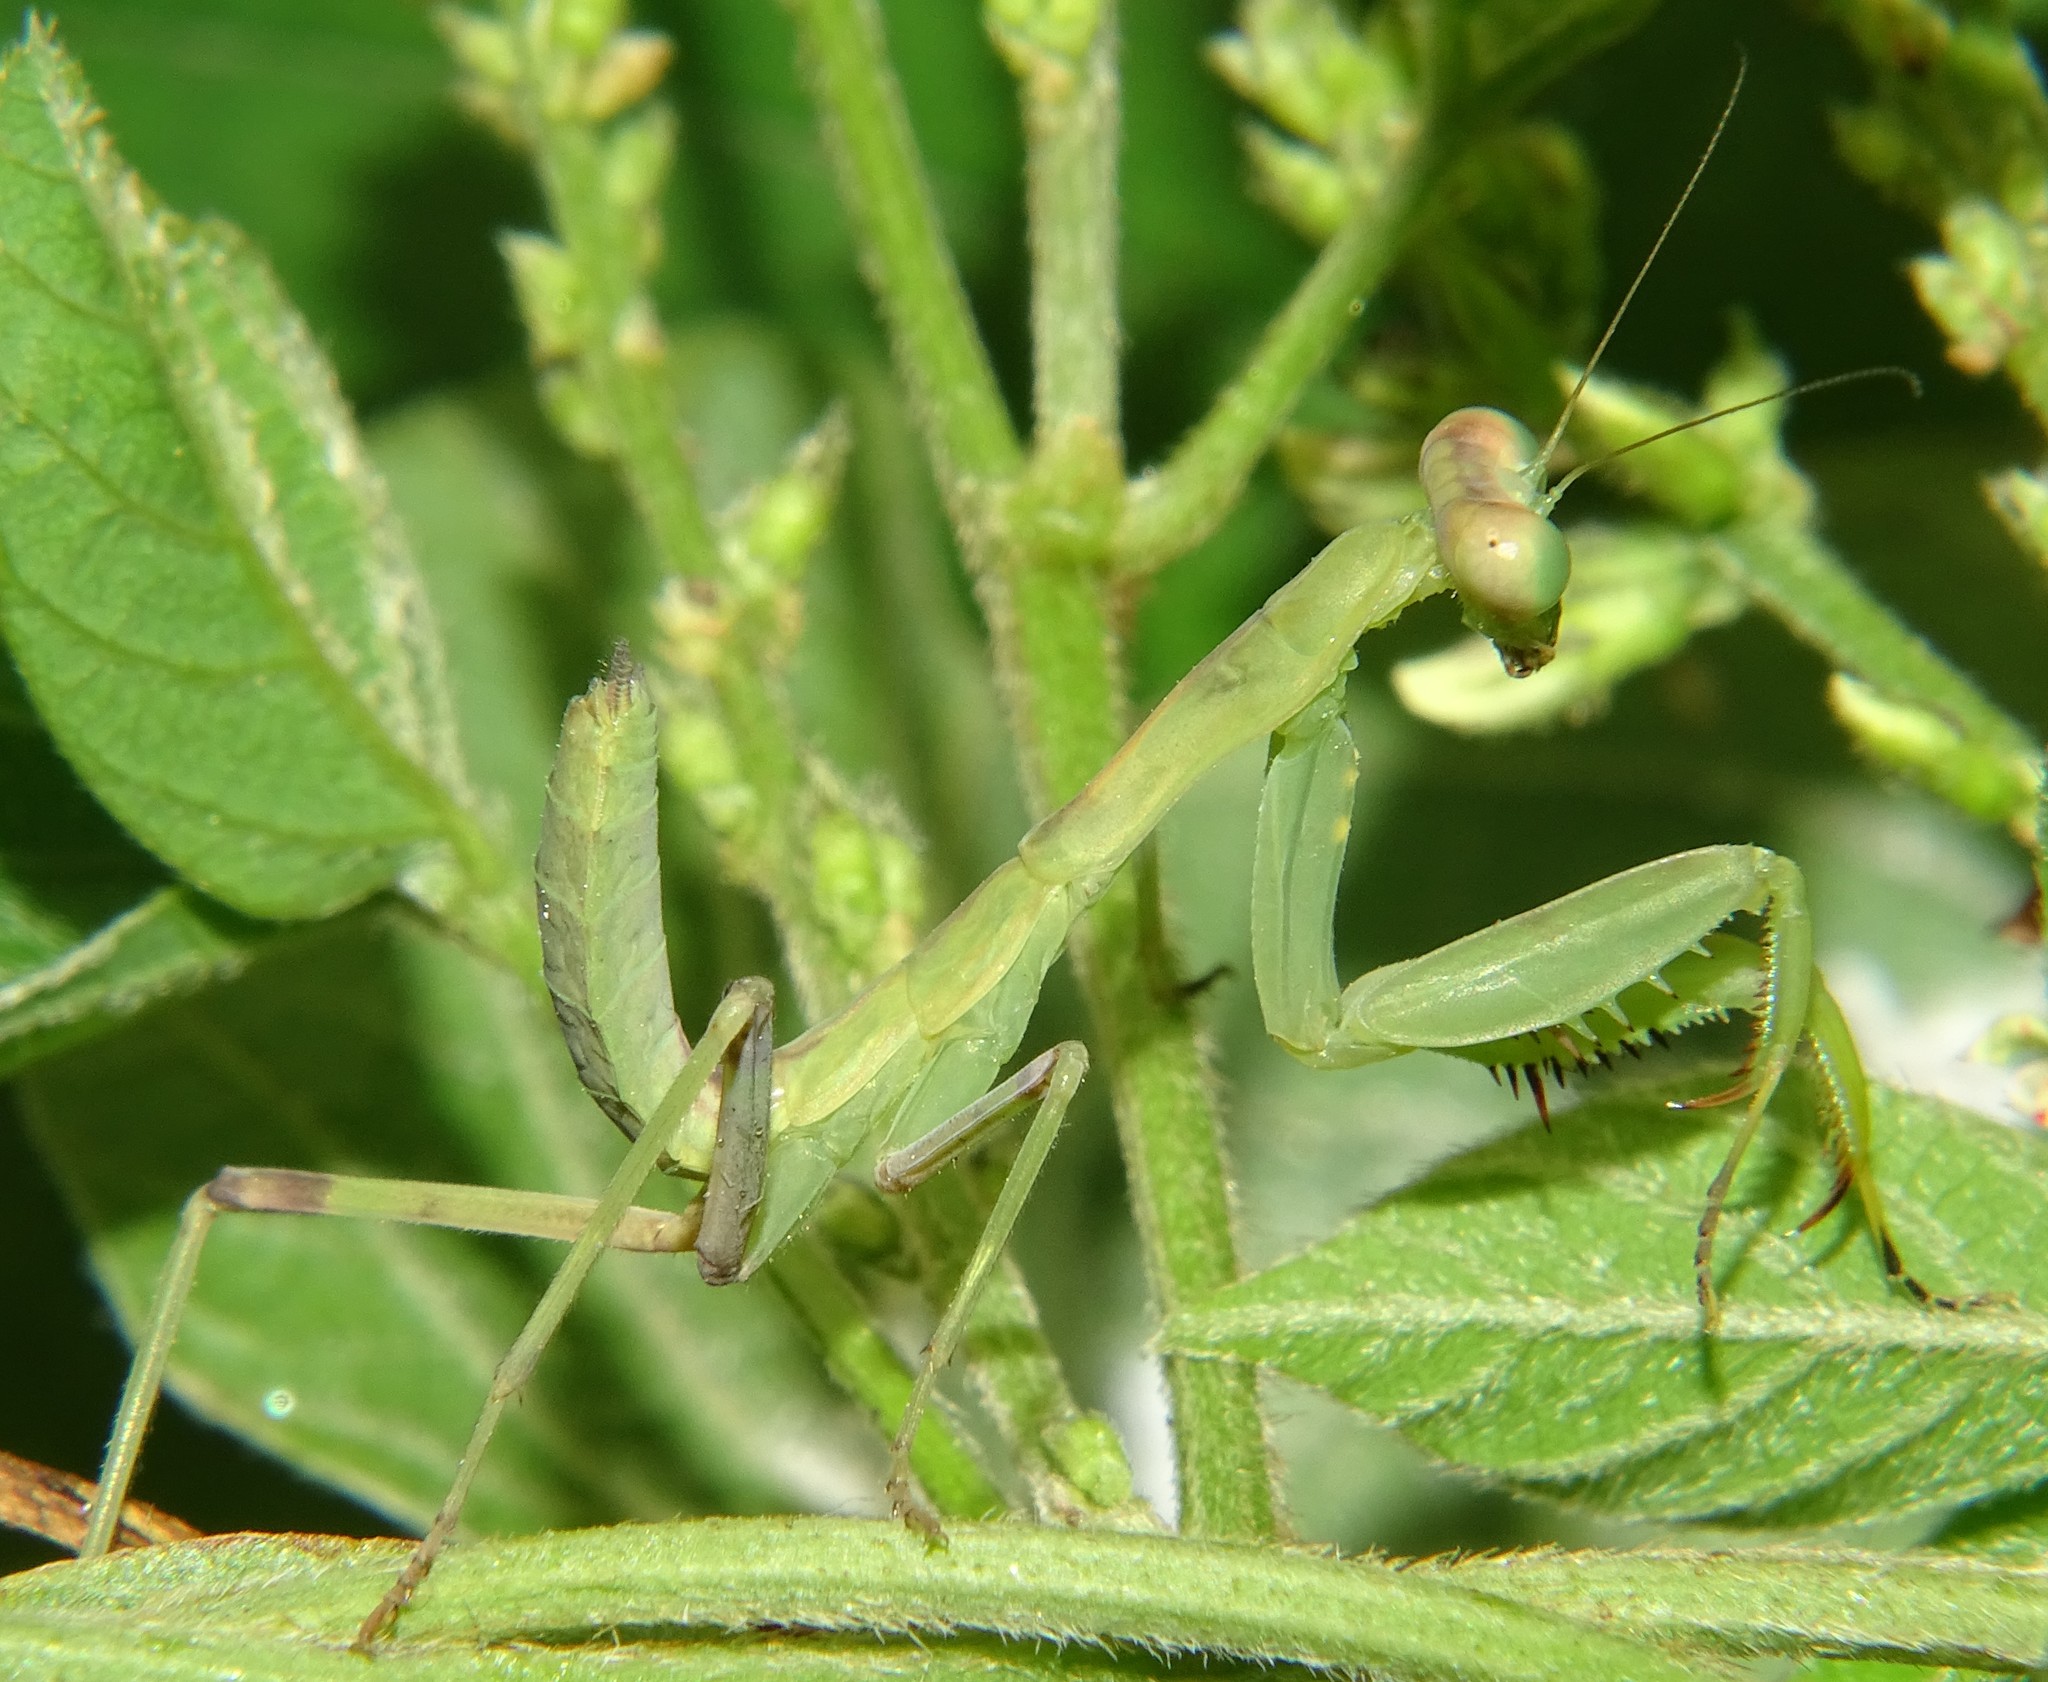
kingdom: Animalia
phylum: Arthropoda
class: Insecta
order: Mantodea
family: Mantidae
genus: Hierodula
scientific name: Hierodula patellifera
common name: Asian mantis
